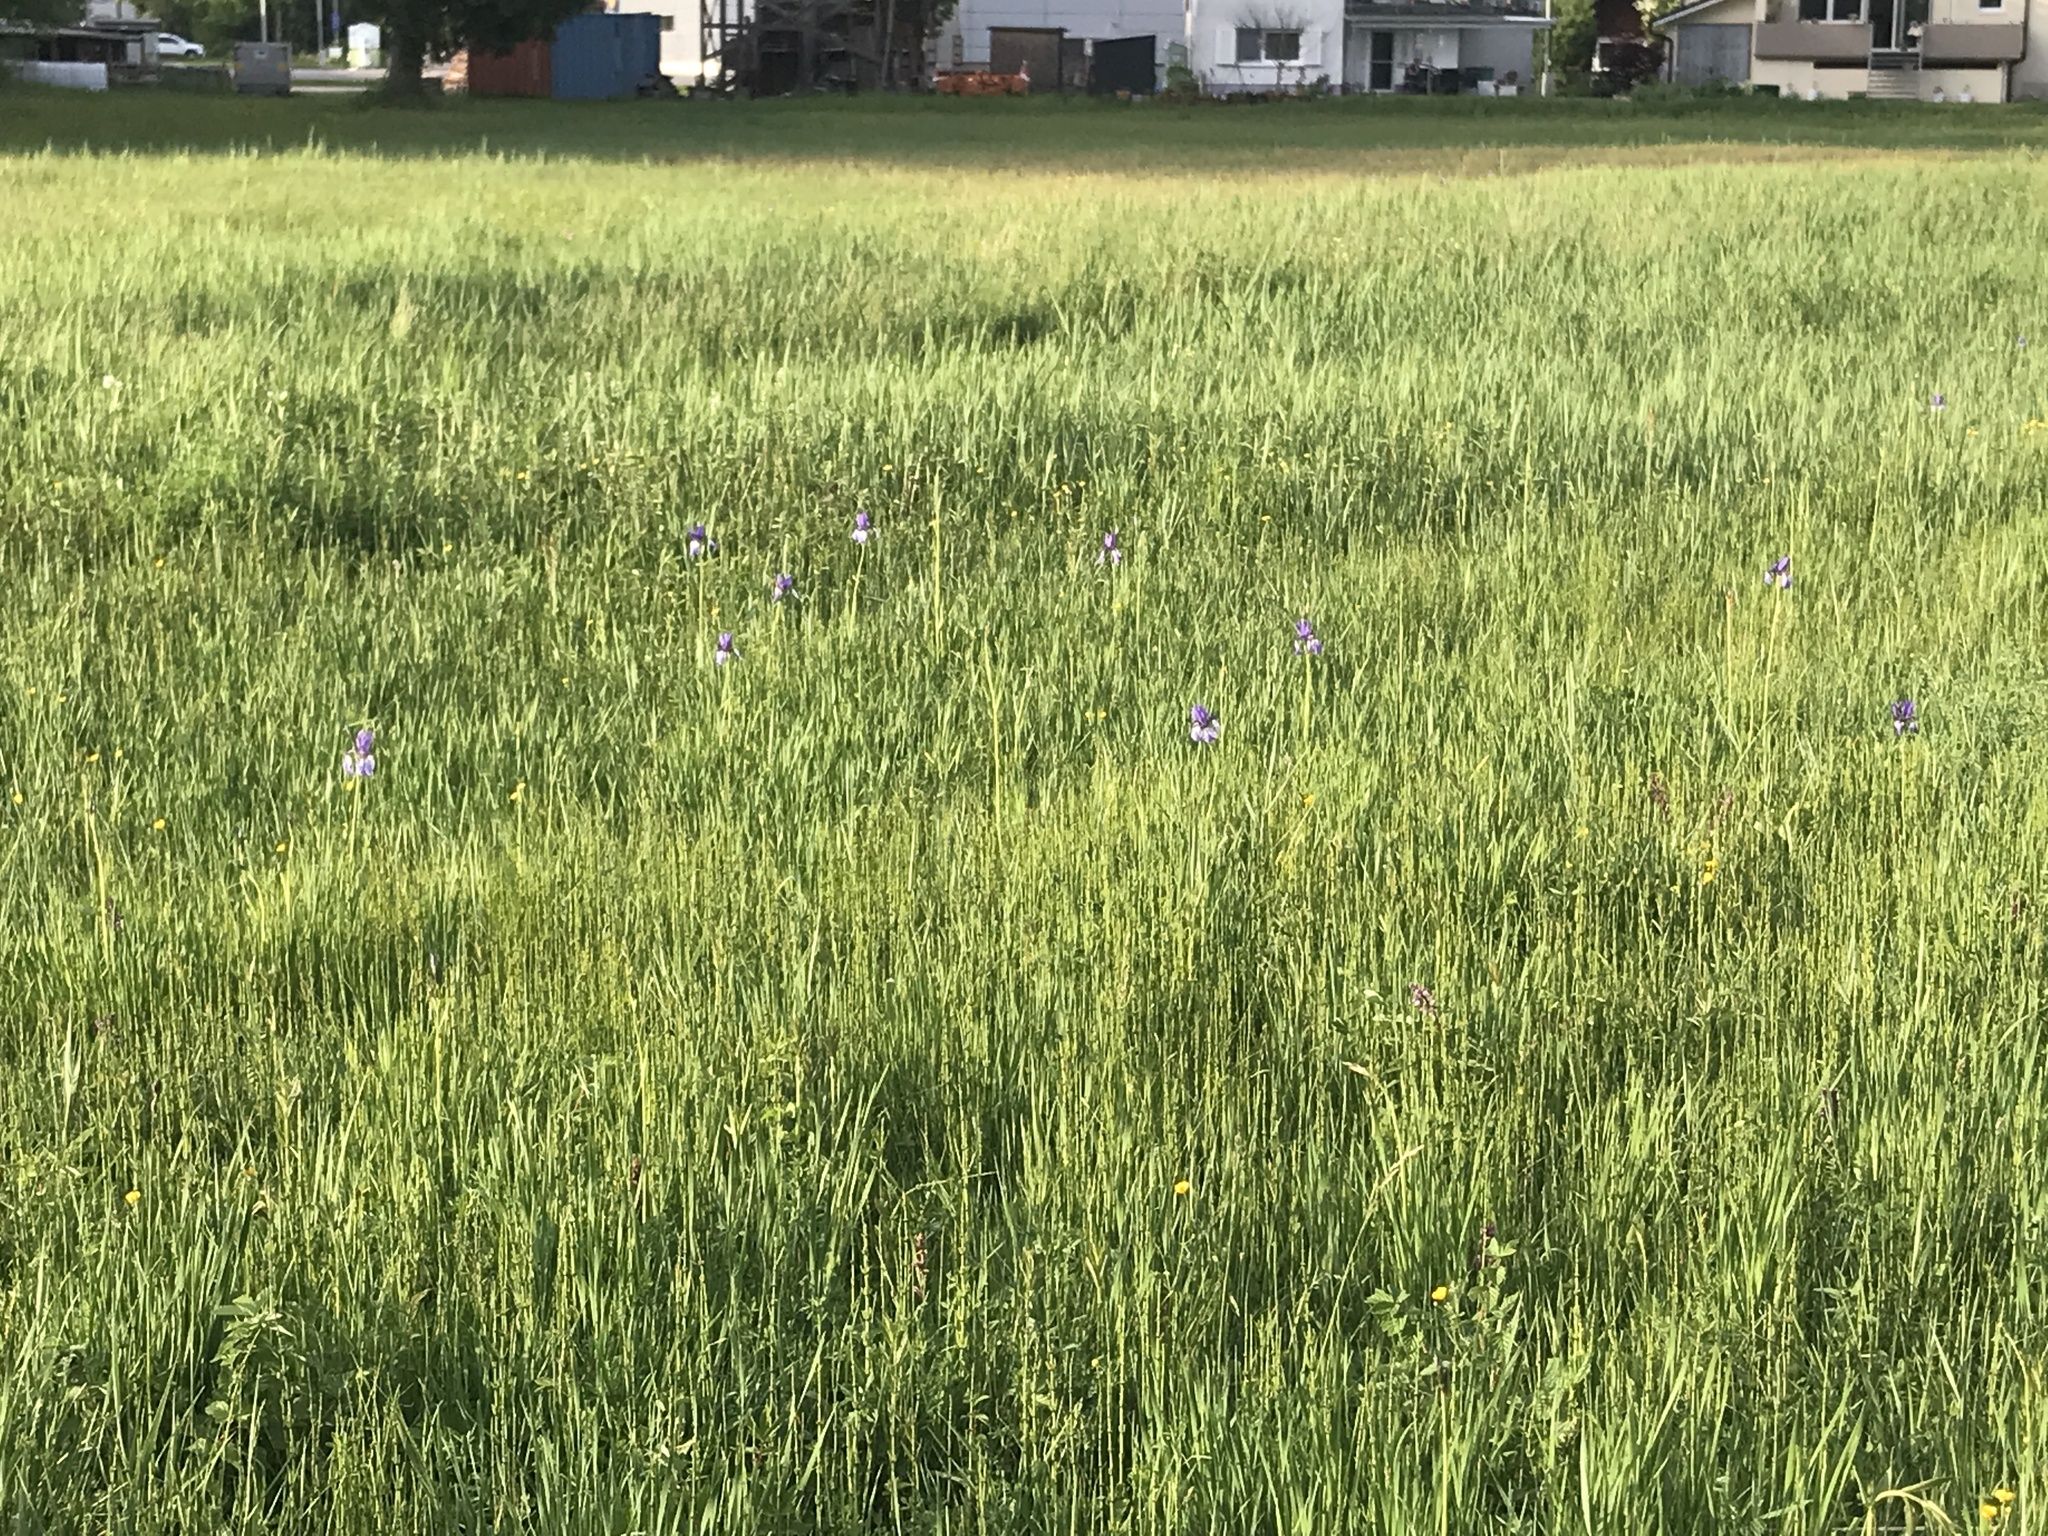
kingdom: Plantae
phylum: Tracheophyta
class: Liliopsida
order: Asparagales
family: Iridaceae
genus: Iris
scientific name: Iris sibirica
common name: Siberian iris
